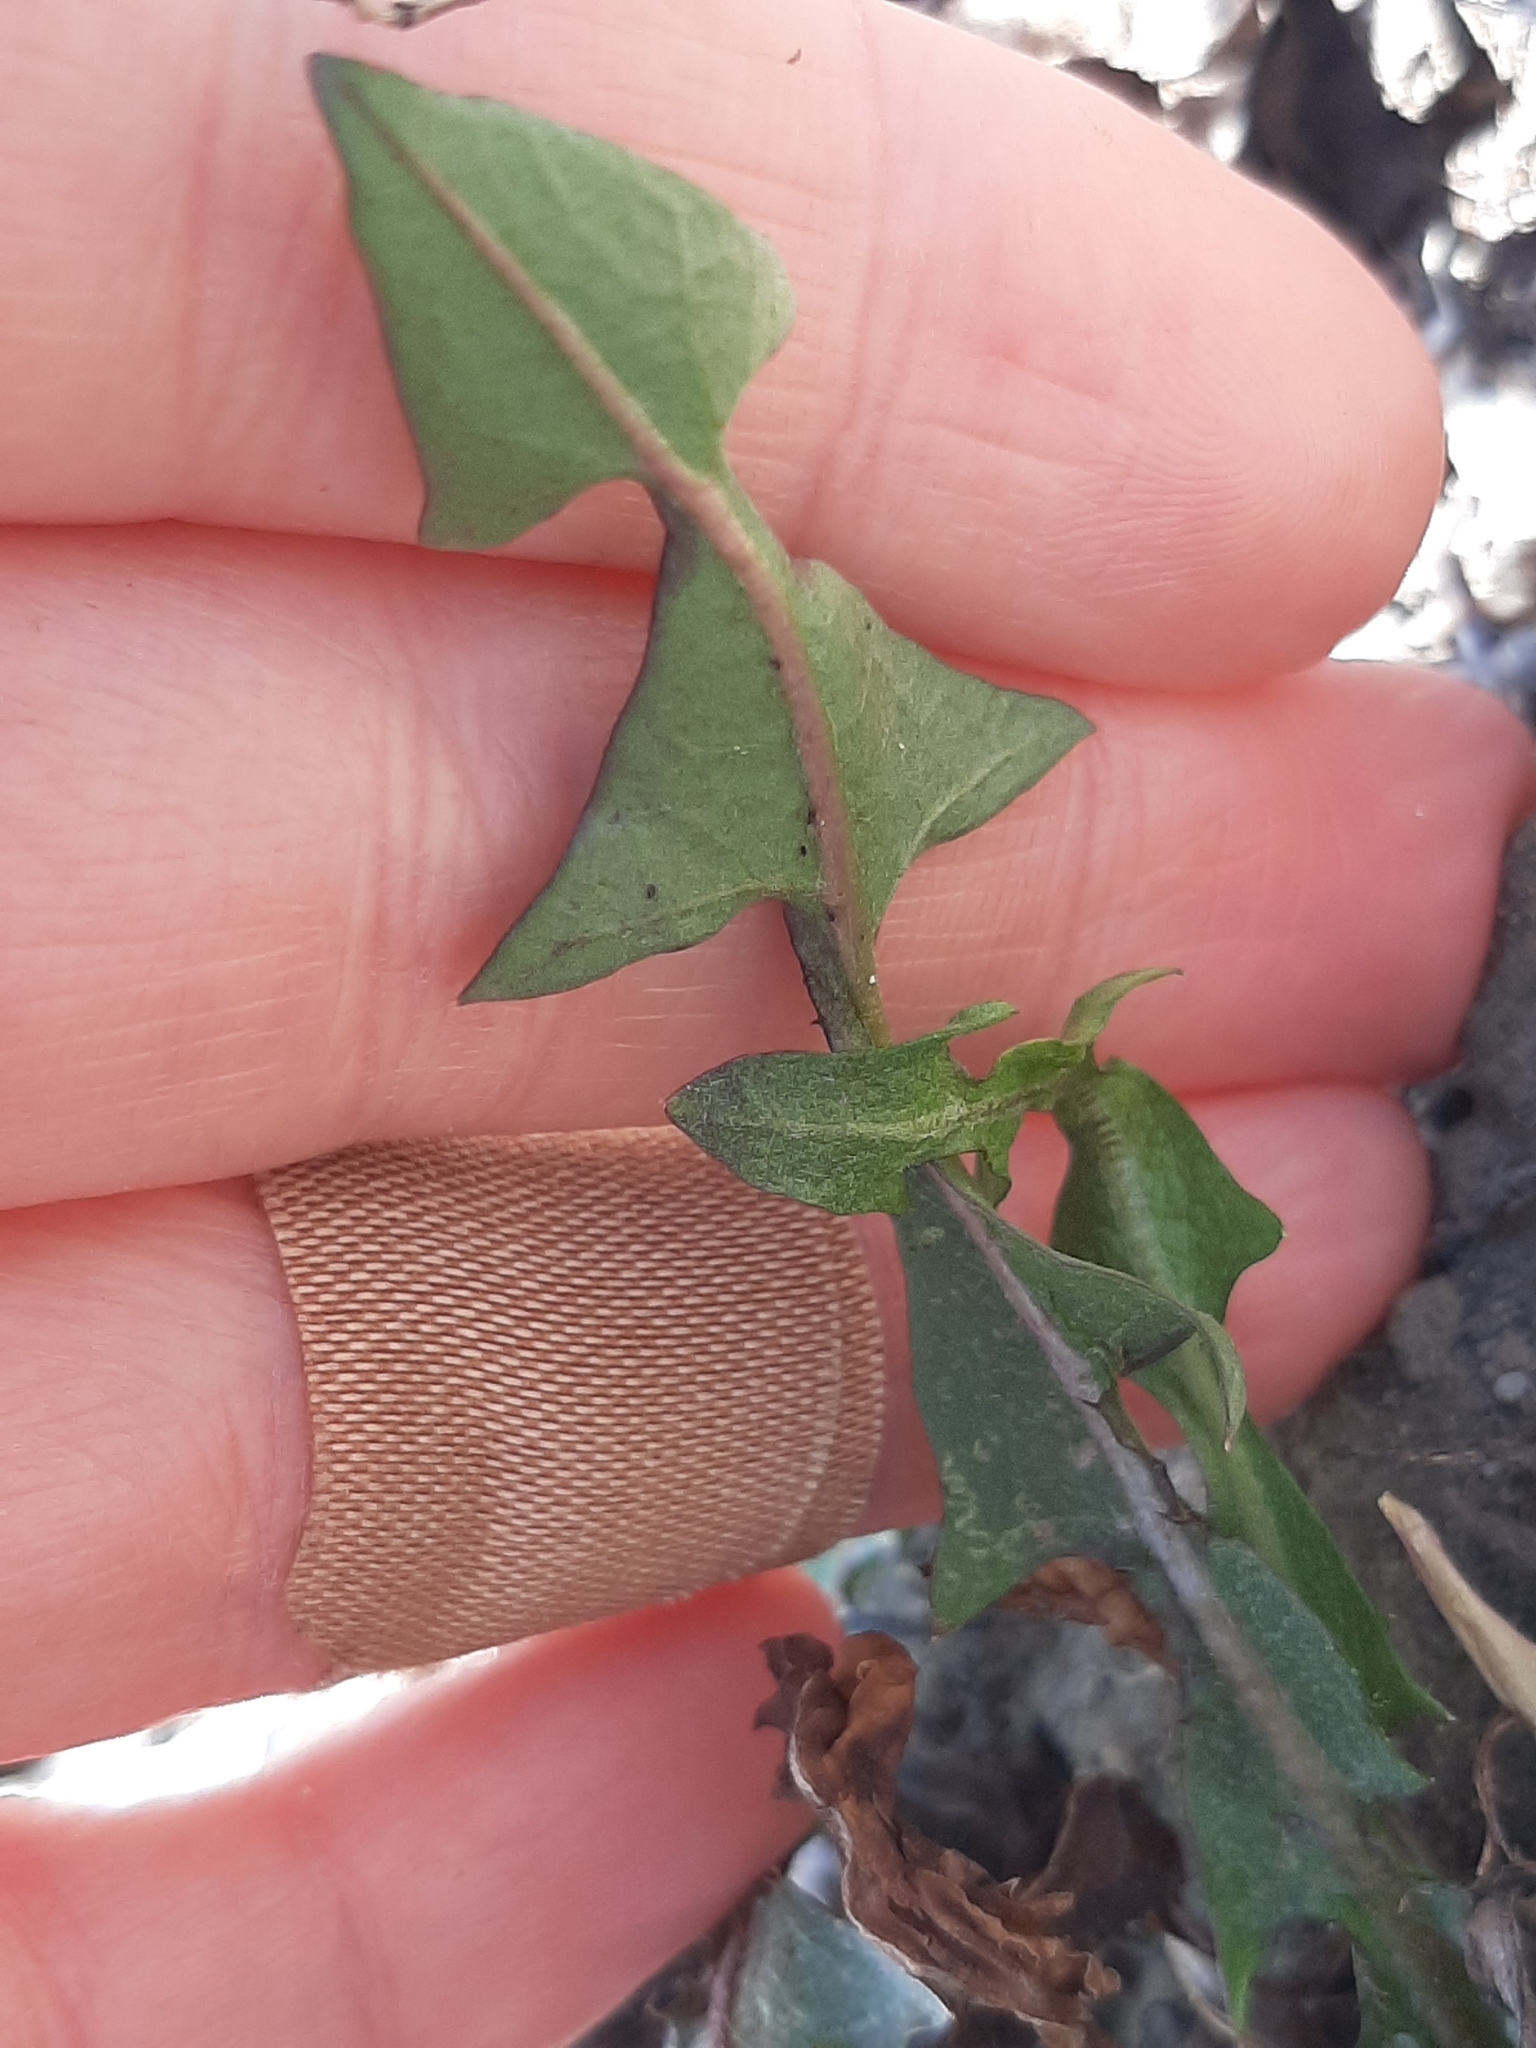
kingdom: Plantae
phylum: Tracheophyta
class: Magnoliopsida
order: Asterales
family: Asteraceae
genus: Taraxacum
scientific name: Taraxacum officinale
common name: Common dandelion
